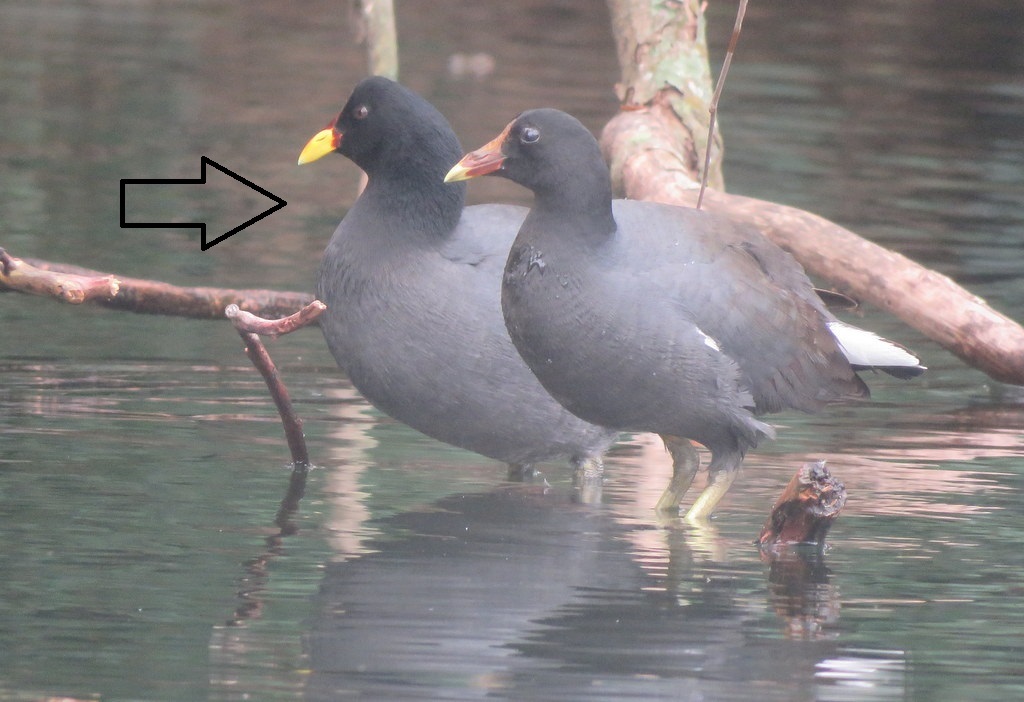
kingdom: Animalia
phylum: Chordata
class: Aves
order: Gruiformes
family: Rallidae
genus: Fulica
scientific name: Fulica rufifrons
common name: Red-fronted coot
